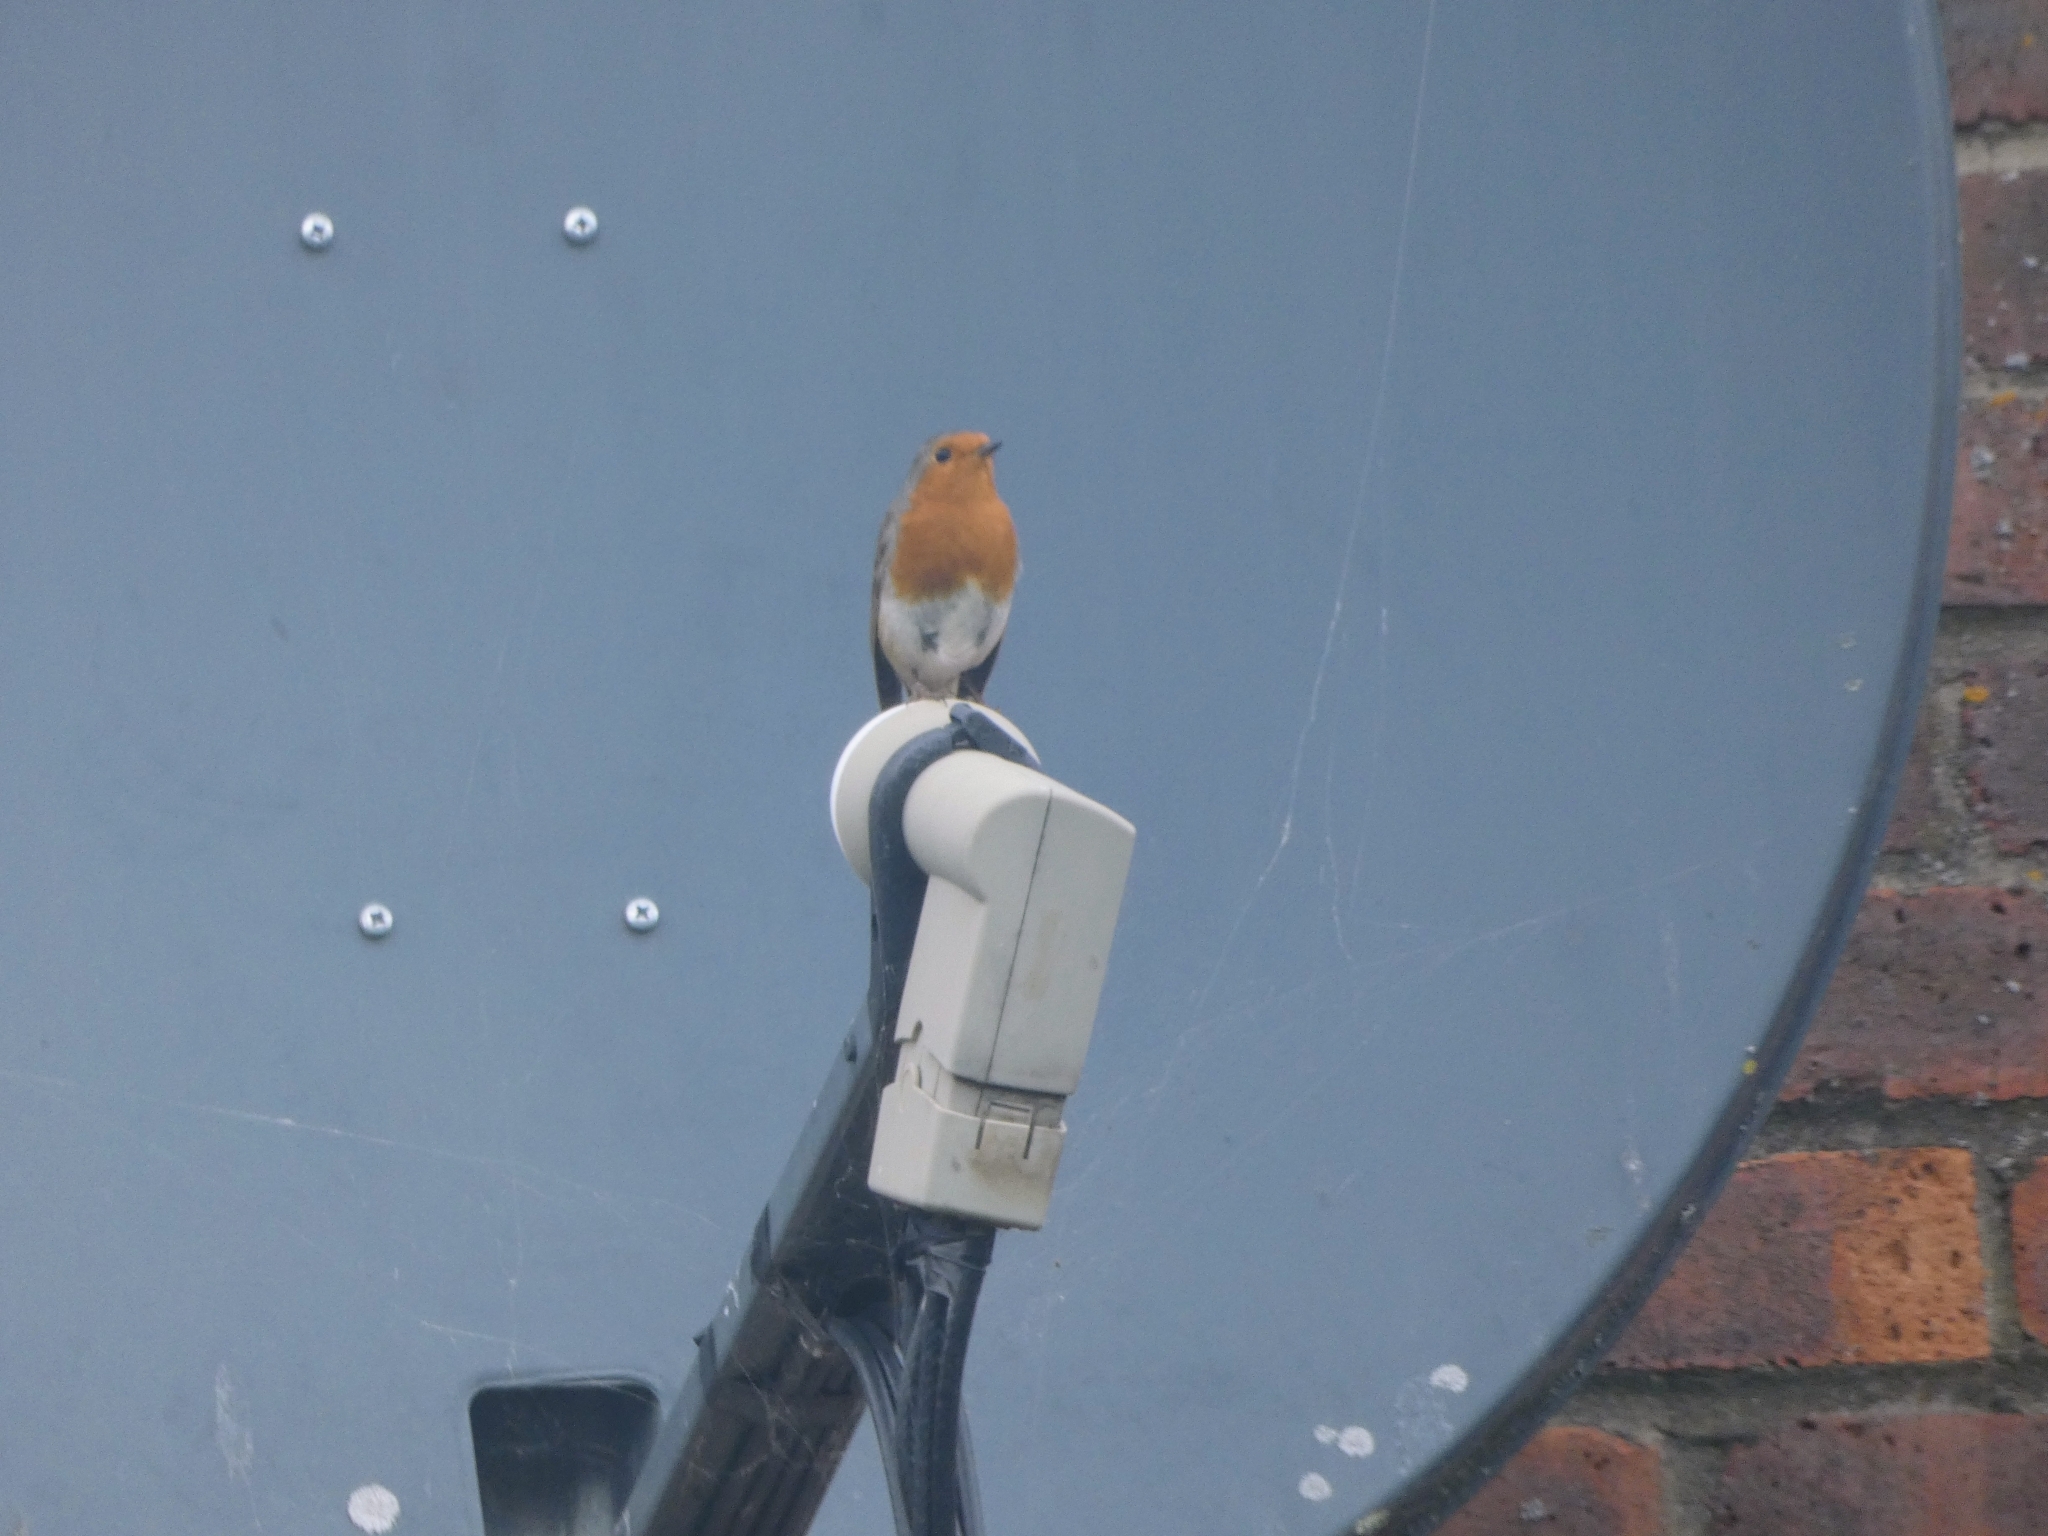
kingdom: Animalia
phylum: Chordata
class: Aves
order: Passeriformes
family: Muscicapidae
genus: Erithacus
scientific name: Erithacus rubecula
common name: European robin
